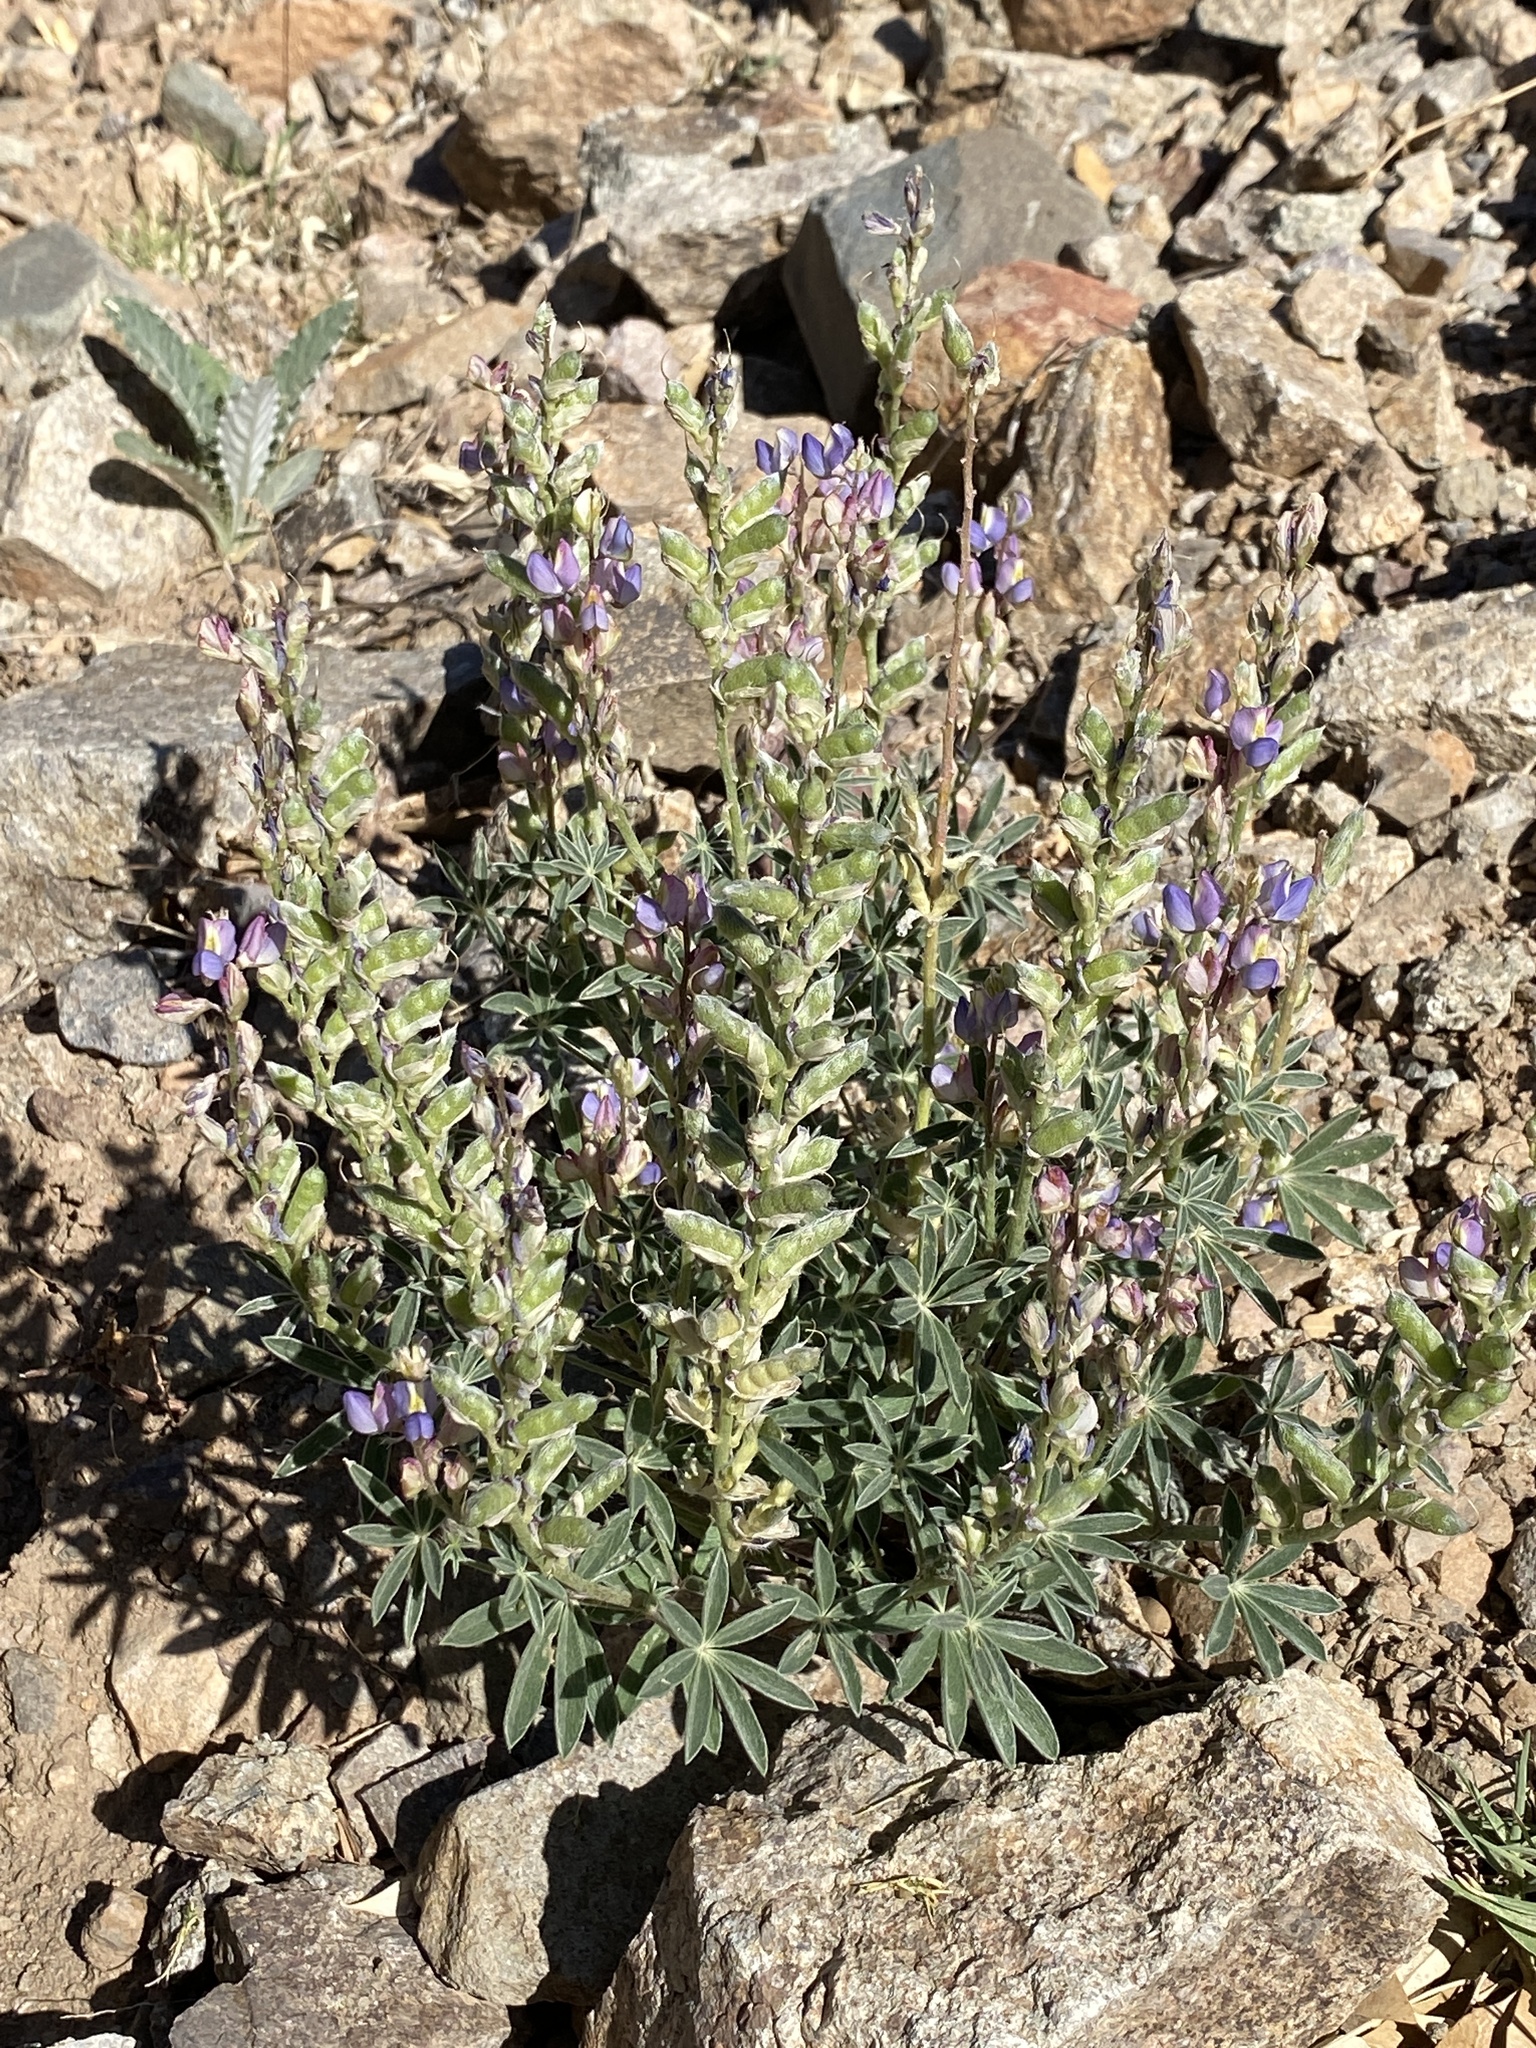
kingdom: Plantae
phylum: Tracheophyta
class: Magnoliopsida
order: Fabales
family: Fabaceae
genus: Lupinus
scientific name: Lupinus sparsiflorus
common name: Coulter's lupine
